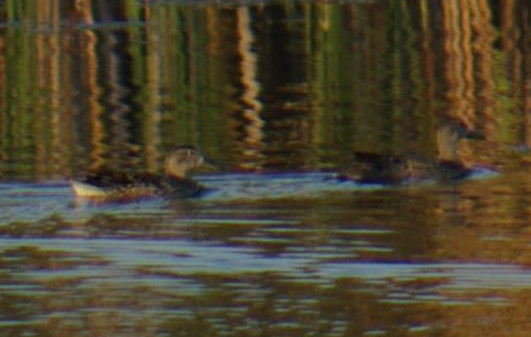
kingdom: Animalia
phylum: Chordata
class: Aves
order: Anseriformes
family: Anatidae
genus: Spatula
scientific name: Spatula discors
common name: Blue-winged teal
